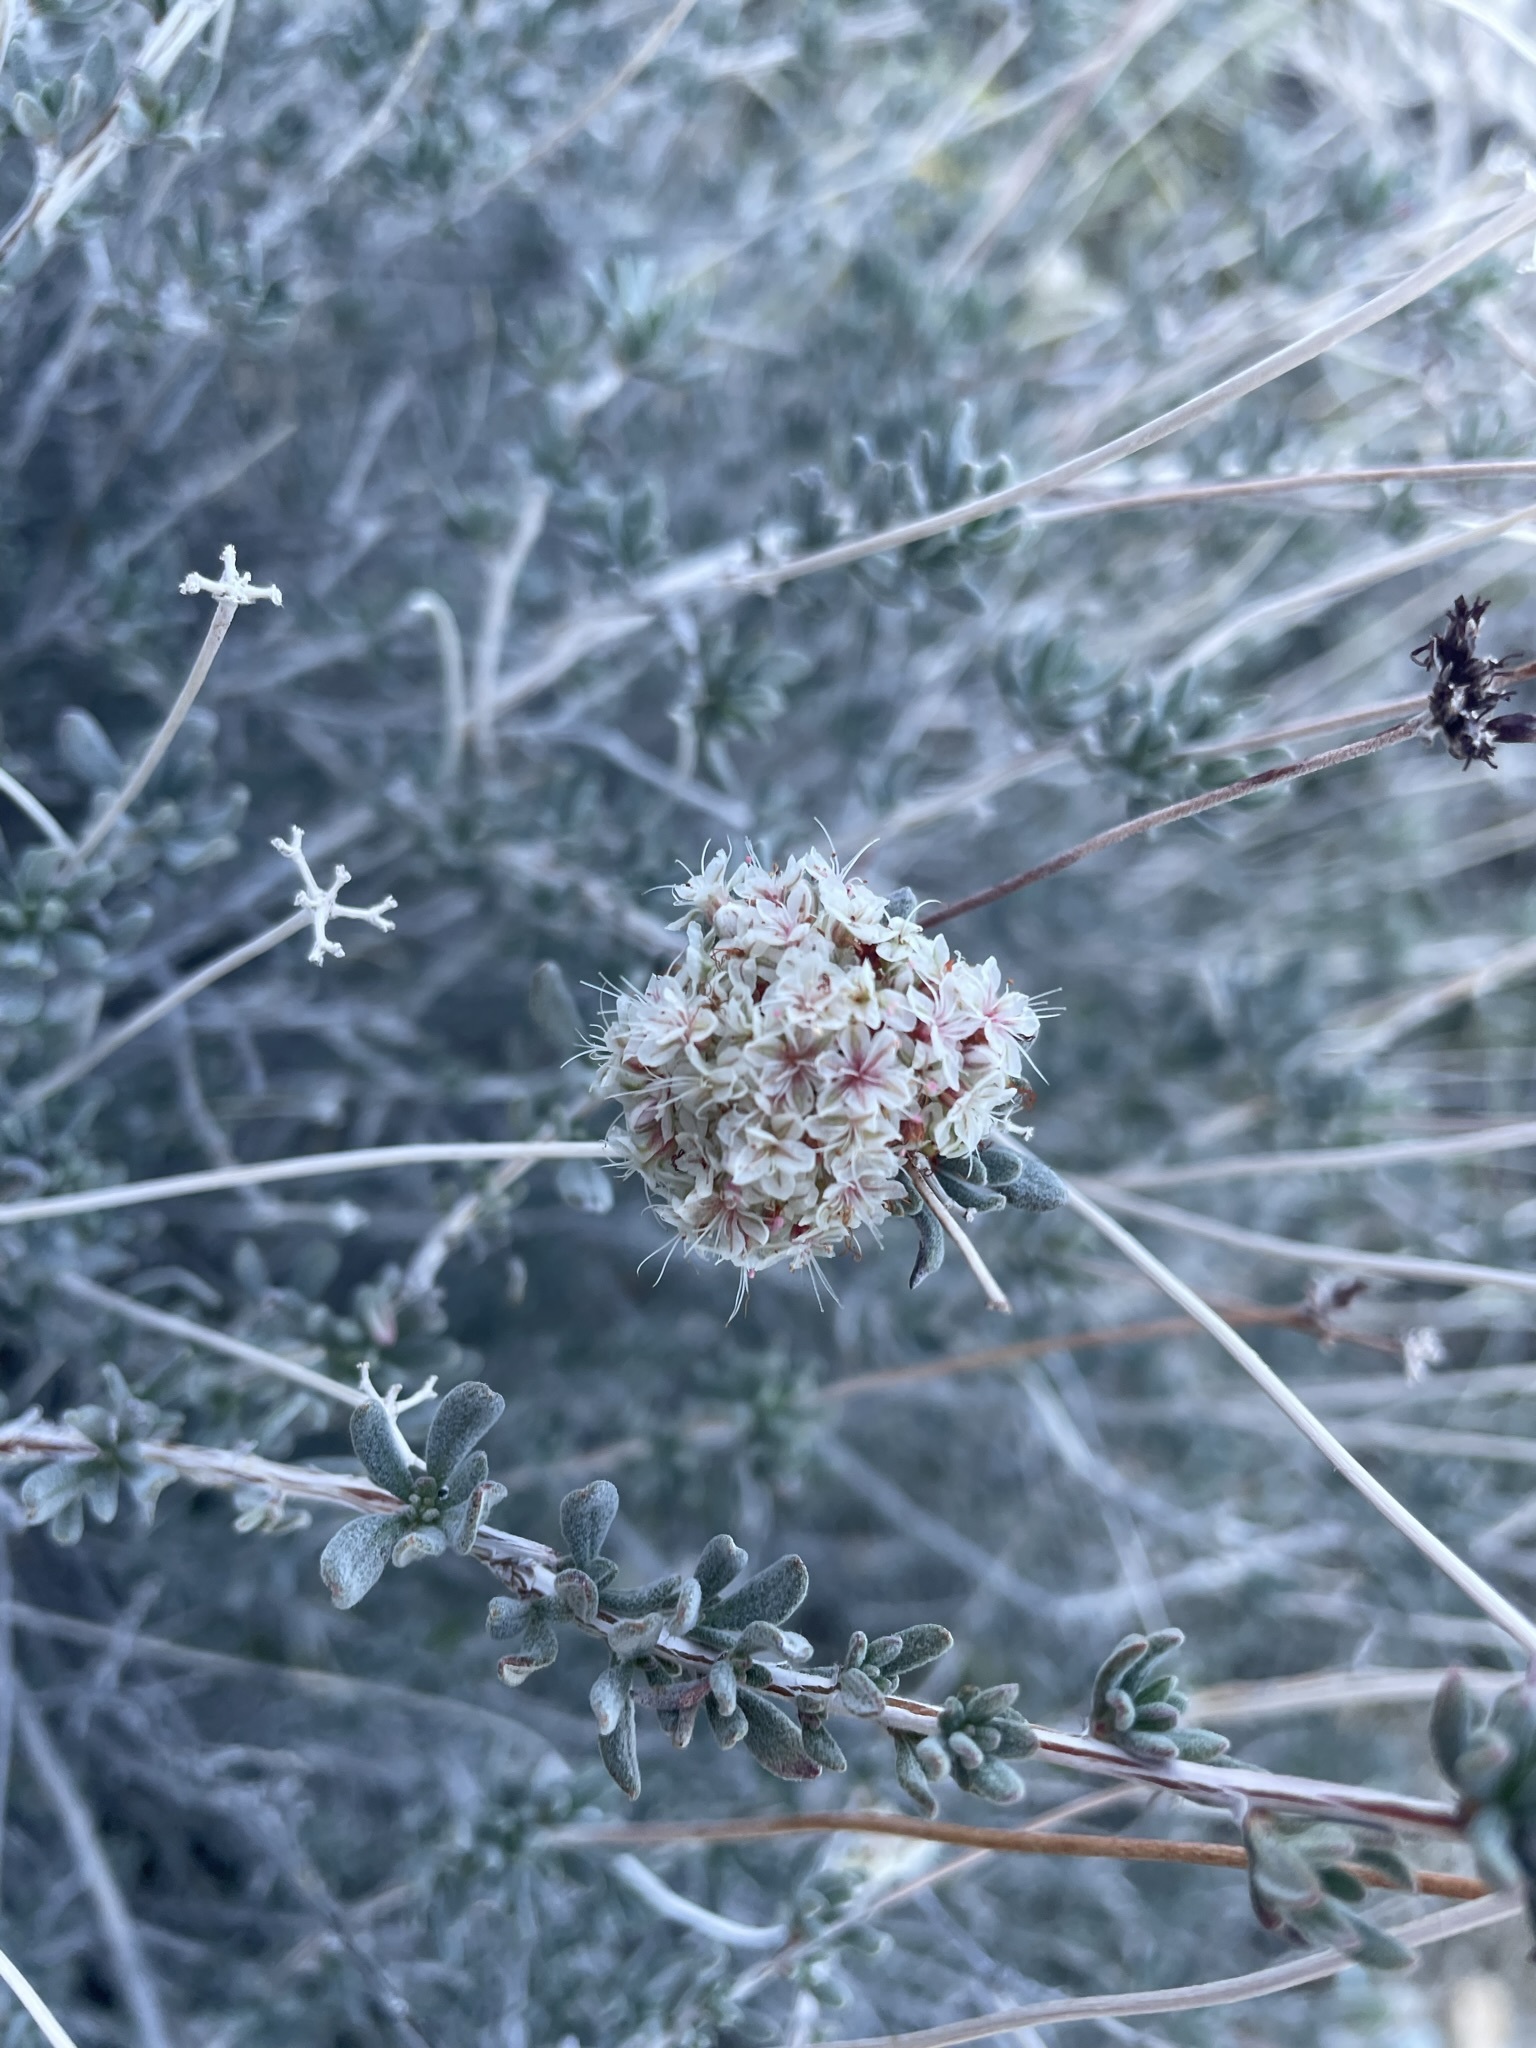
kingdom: Plantae
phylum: Tracheophyta
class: Magnoliopsida
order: Caryophyllales
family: Polygonaceae
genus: Eriogonum
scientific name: Eriogonum fasciculatum
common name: California wild buckwheat
